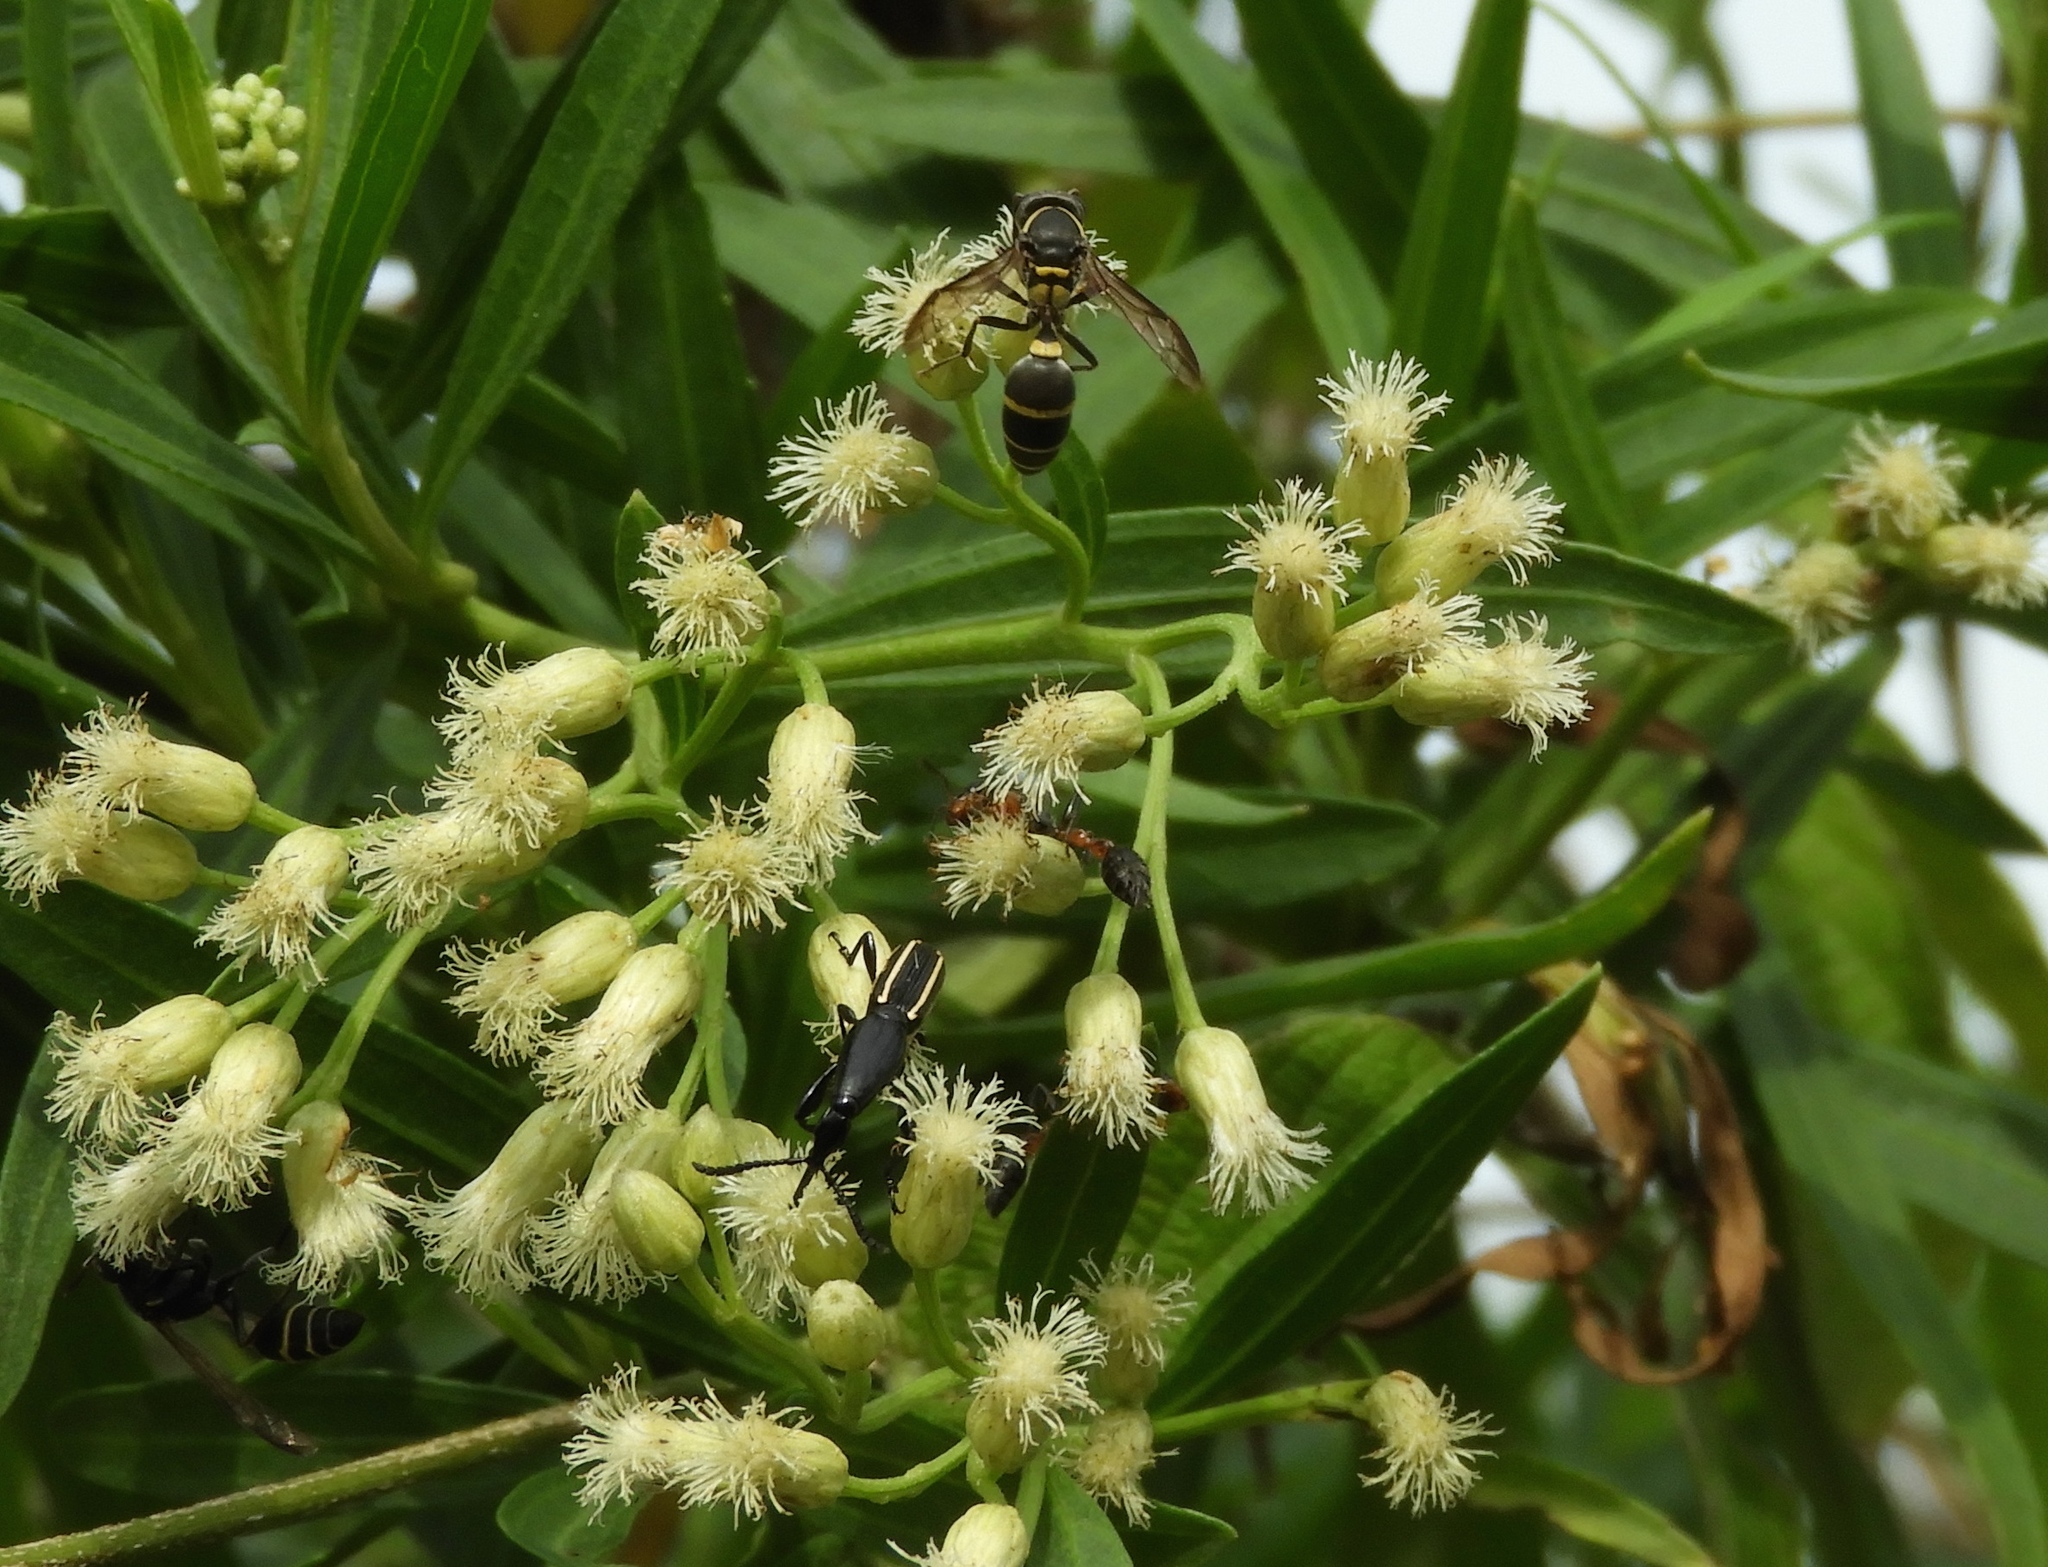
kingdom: Animalia
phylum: Arthropoda
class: Insecta
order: Hymenoptera
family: Vespidae
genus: Myrapetra
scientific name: Myrapetra
